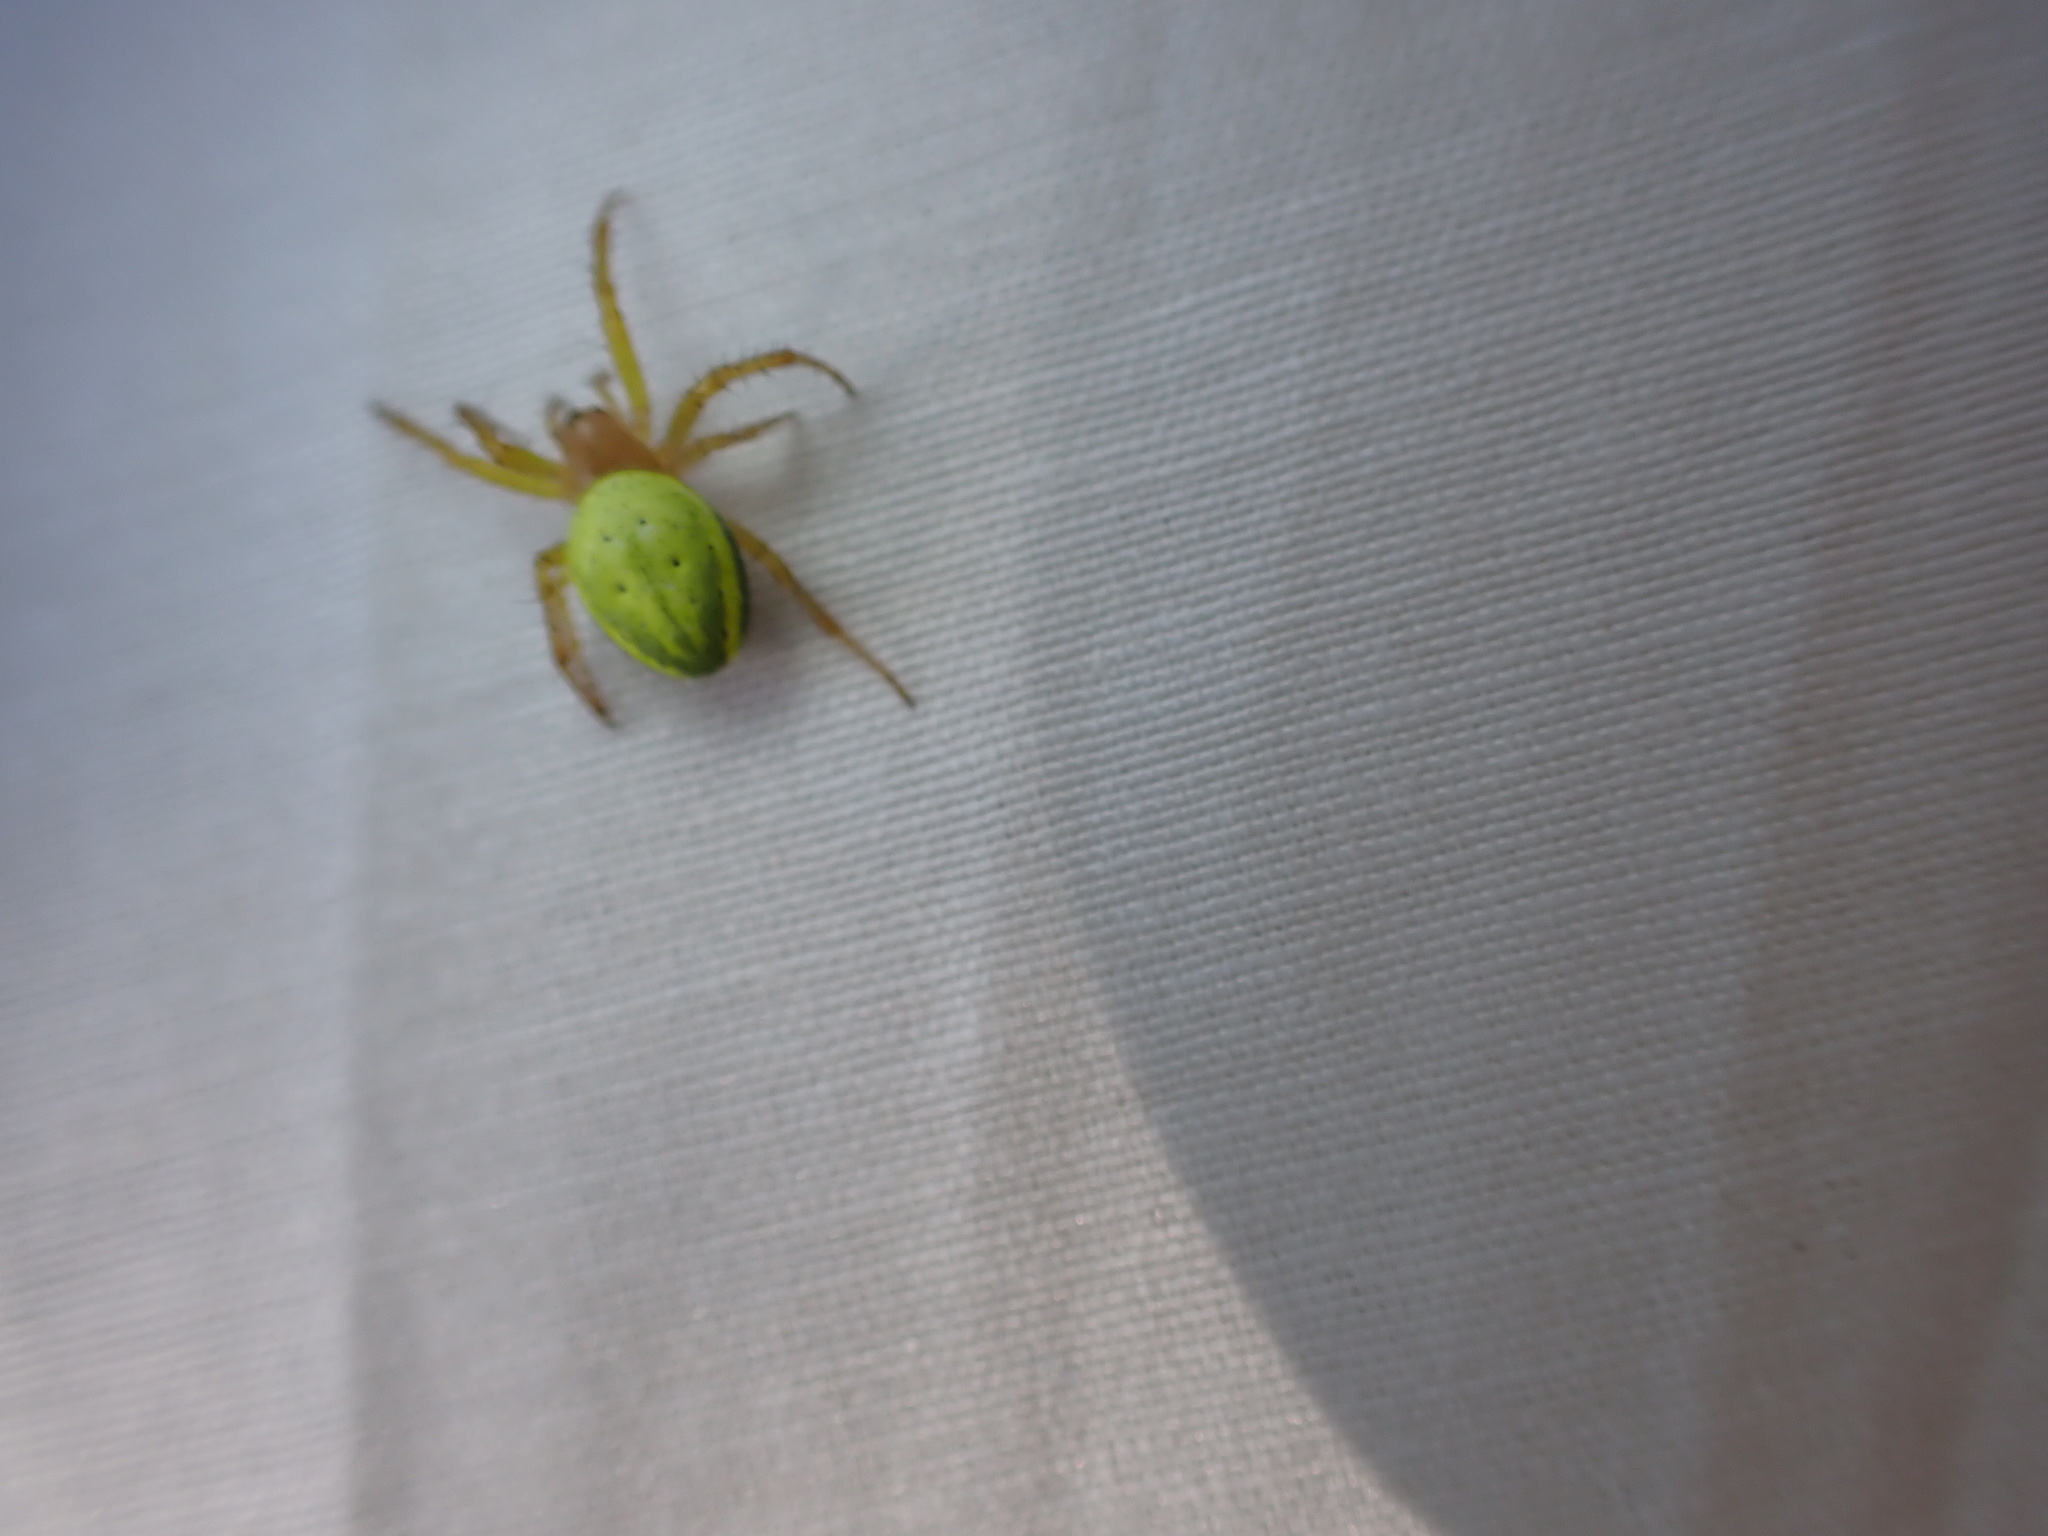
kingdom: Animalia
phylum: Arthropoda
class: Arachnida
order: Araneae
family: Araneidae
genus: Araniella
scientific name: Araniella
